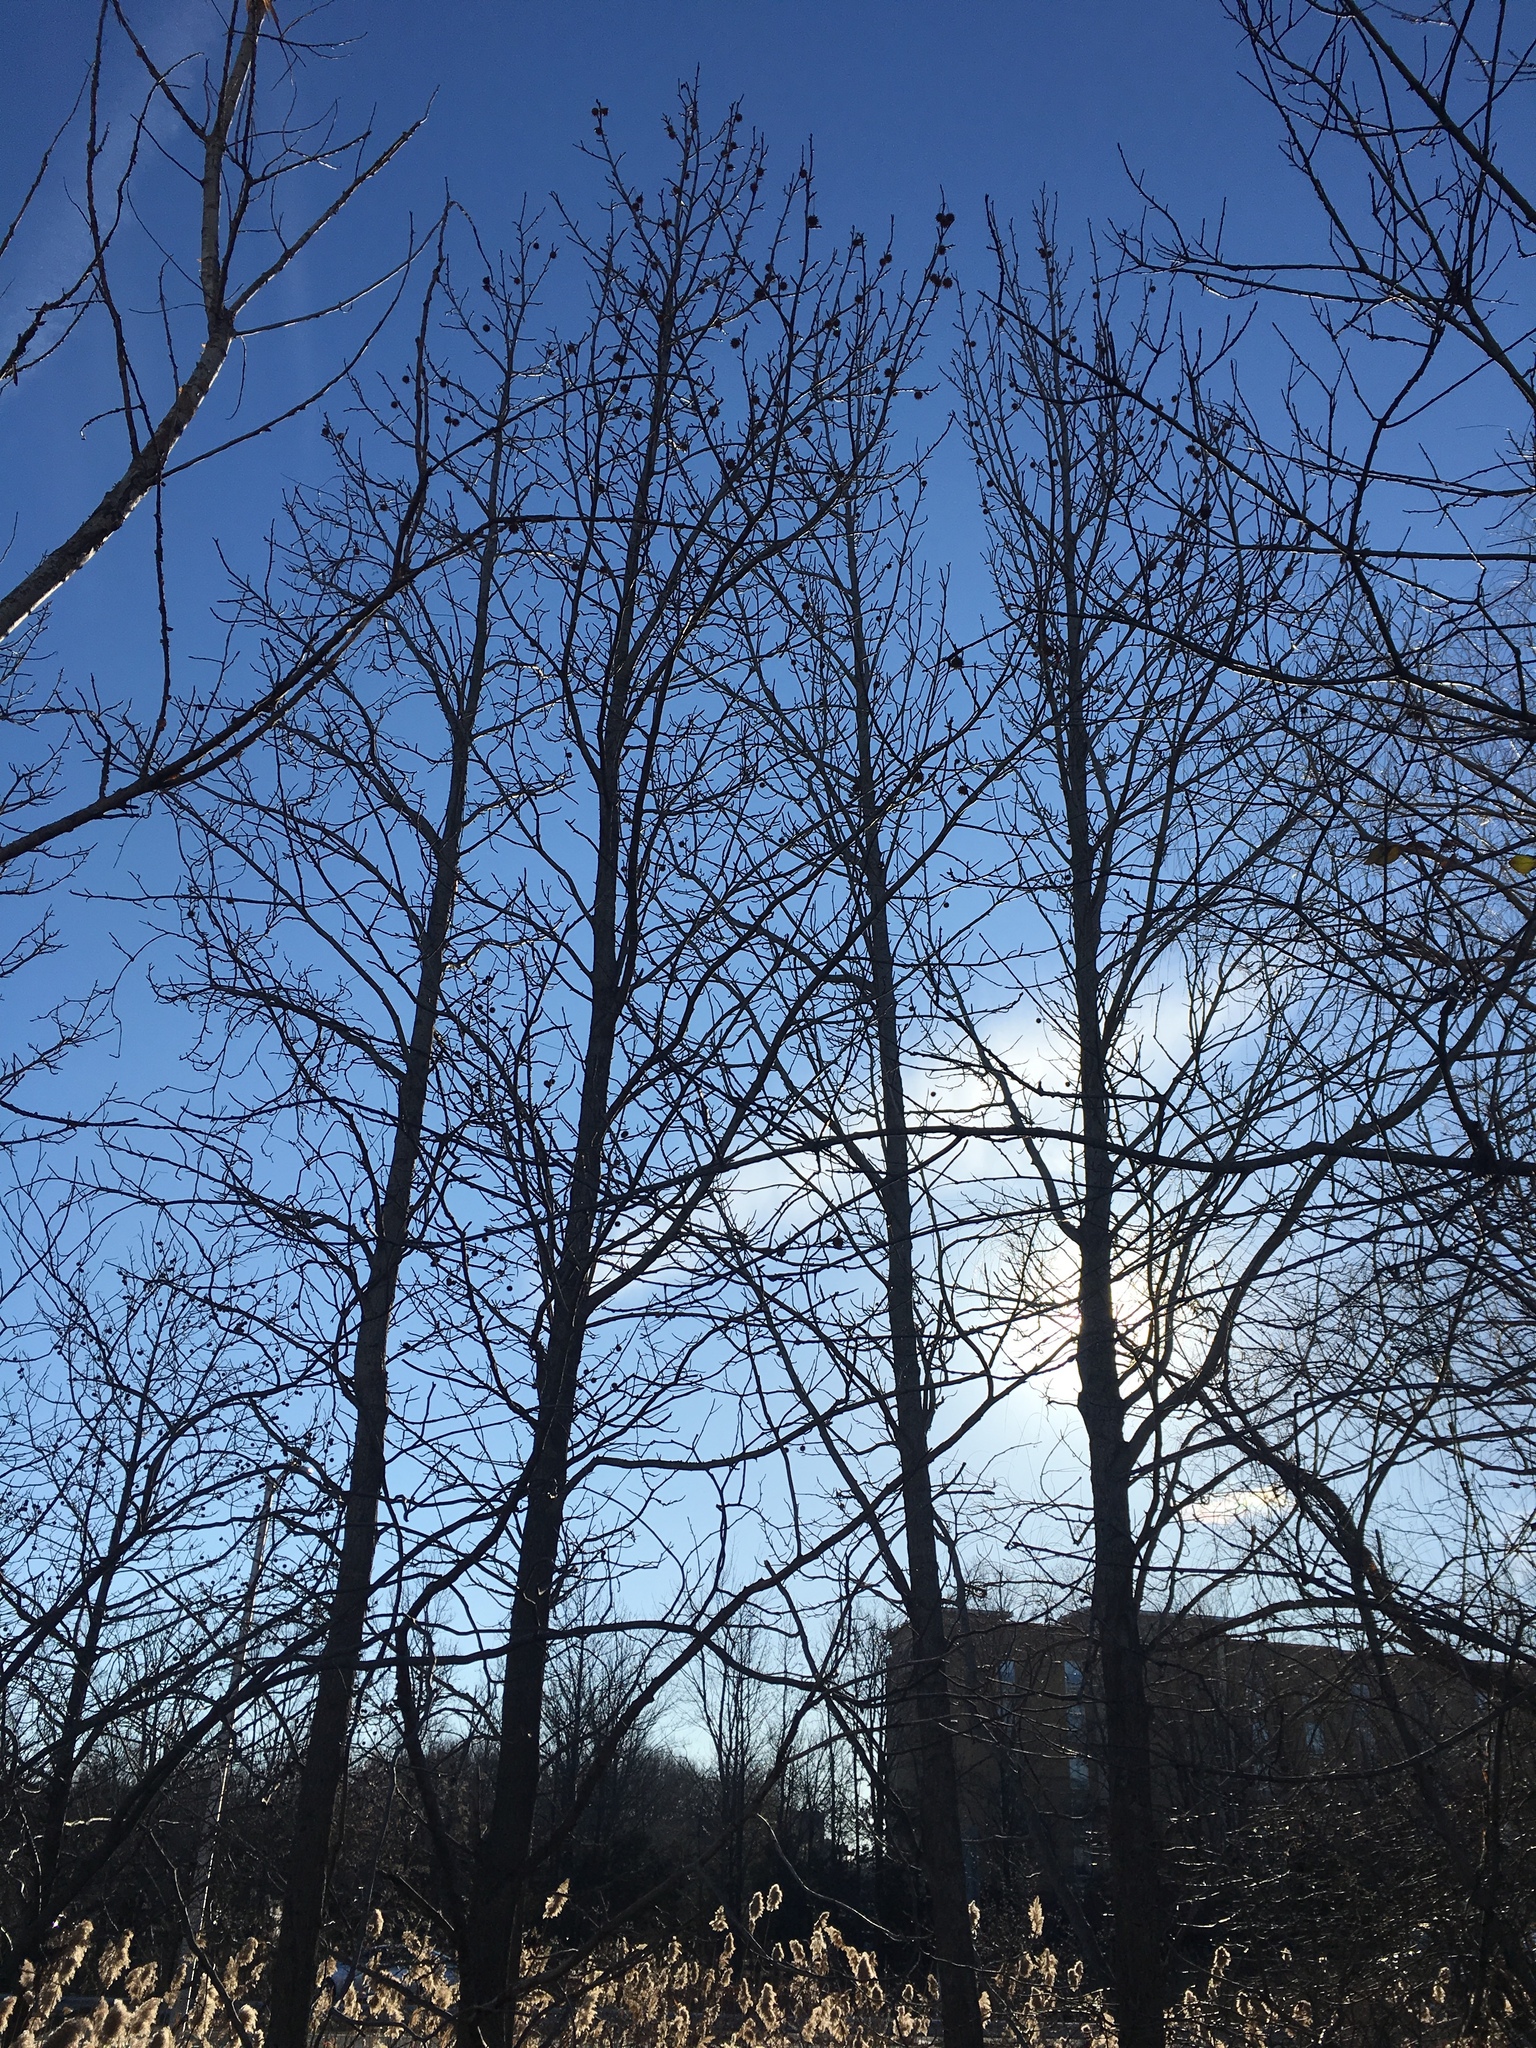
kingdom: Plantae
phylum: Tracheophyta
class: Magnoliopsida
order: Saxifragales
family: Altingiaceae
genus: Liquidambar
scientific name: Liquidambar styraciflua
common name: Sweet gum
